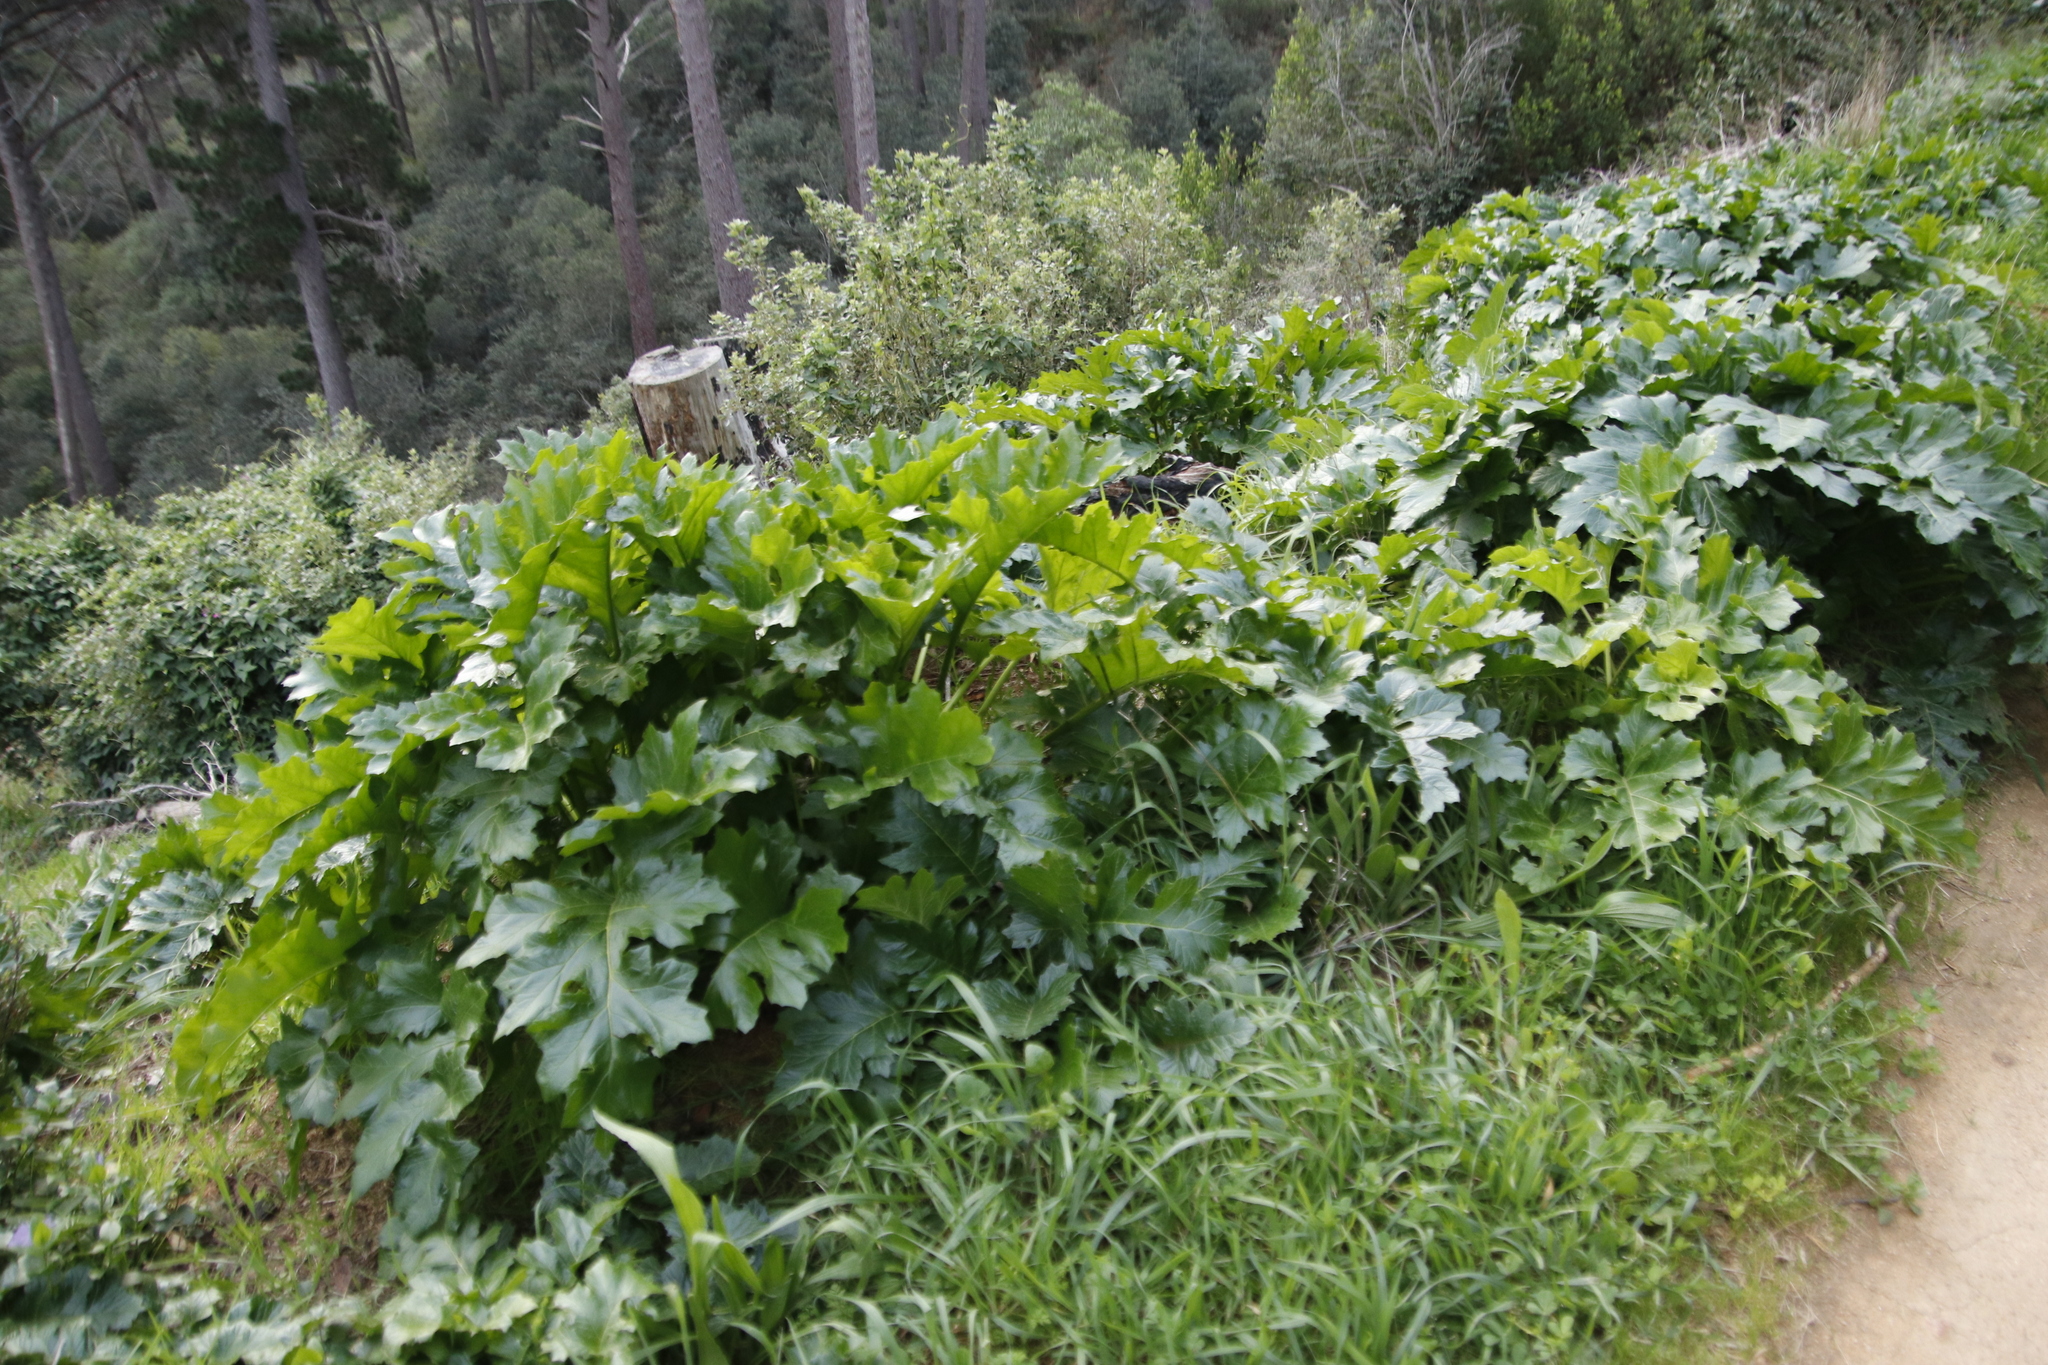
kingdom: Plantae
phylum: Tracheophyta
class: Magnoliopsida
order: Lamiales
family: Acanthaceae
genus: Acanthus
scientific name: Acanthus mollis
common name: Bear's-breech
